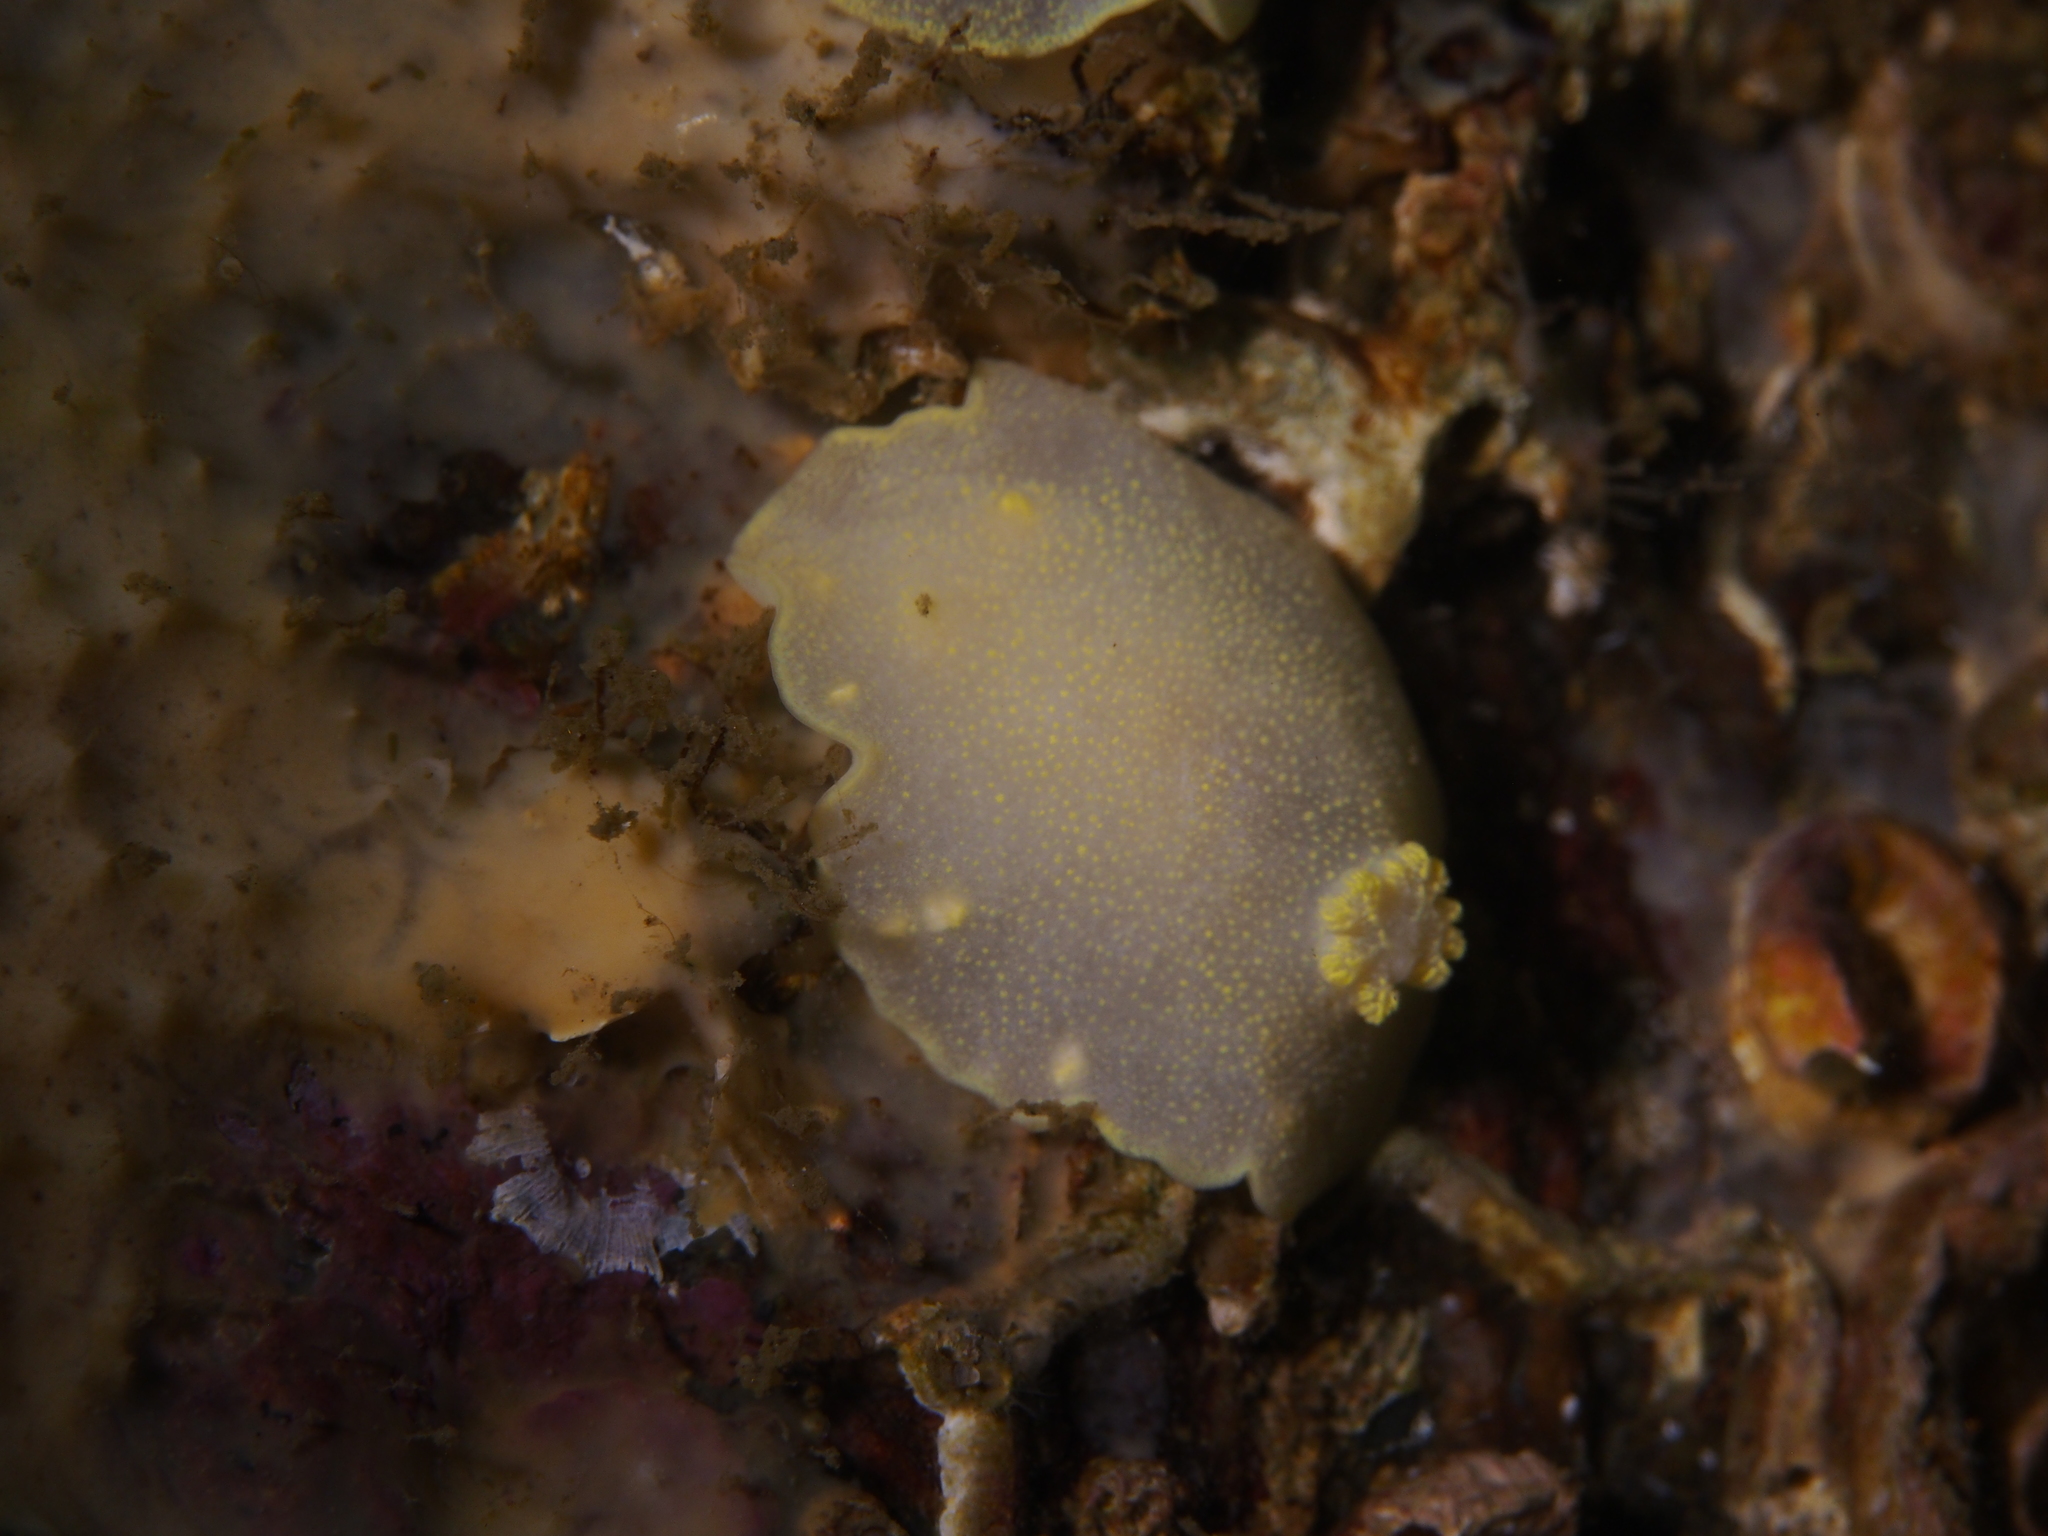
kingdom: Animalia
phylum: Mollusca
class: Gastropoda
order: Nudibranchia
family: Cadlinidae
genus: Cadlina
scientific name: Cadlina laevis
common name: White atlantic cadlina
